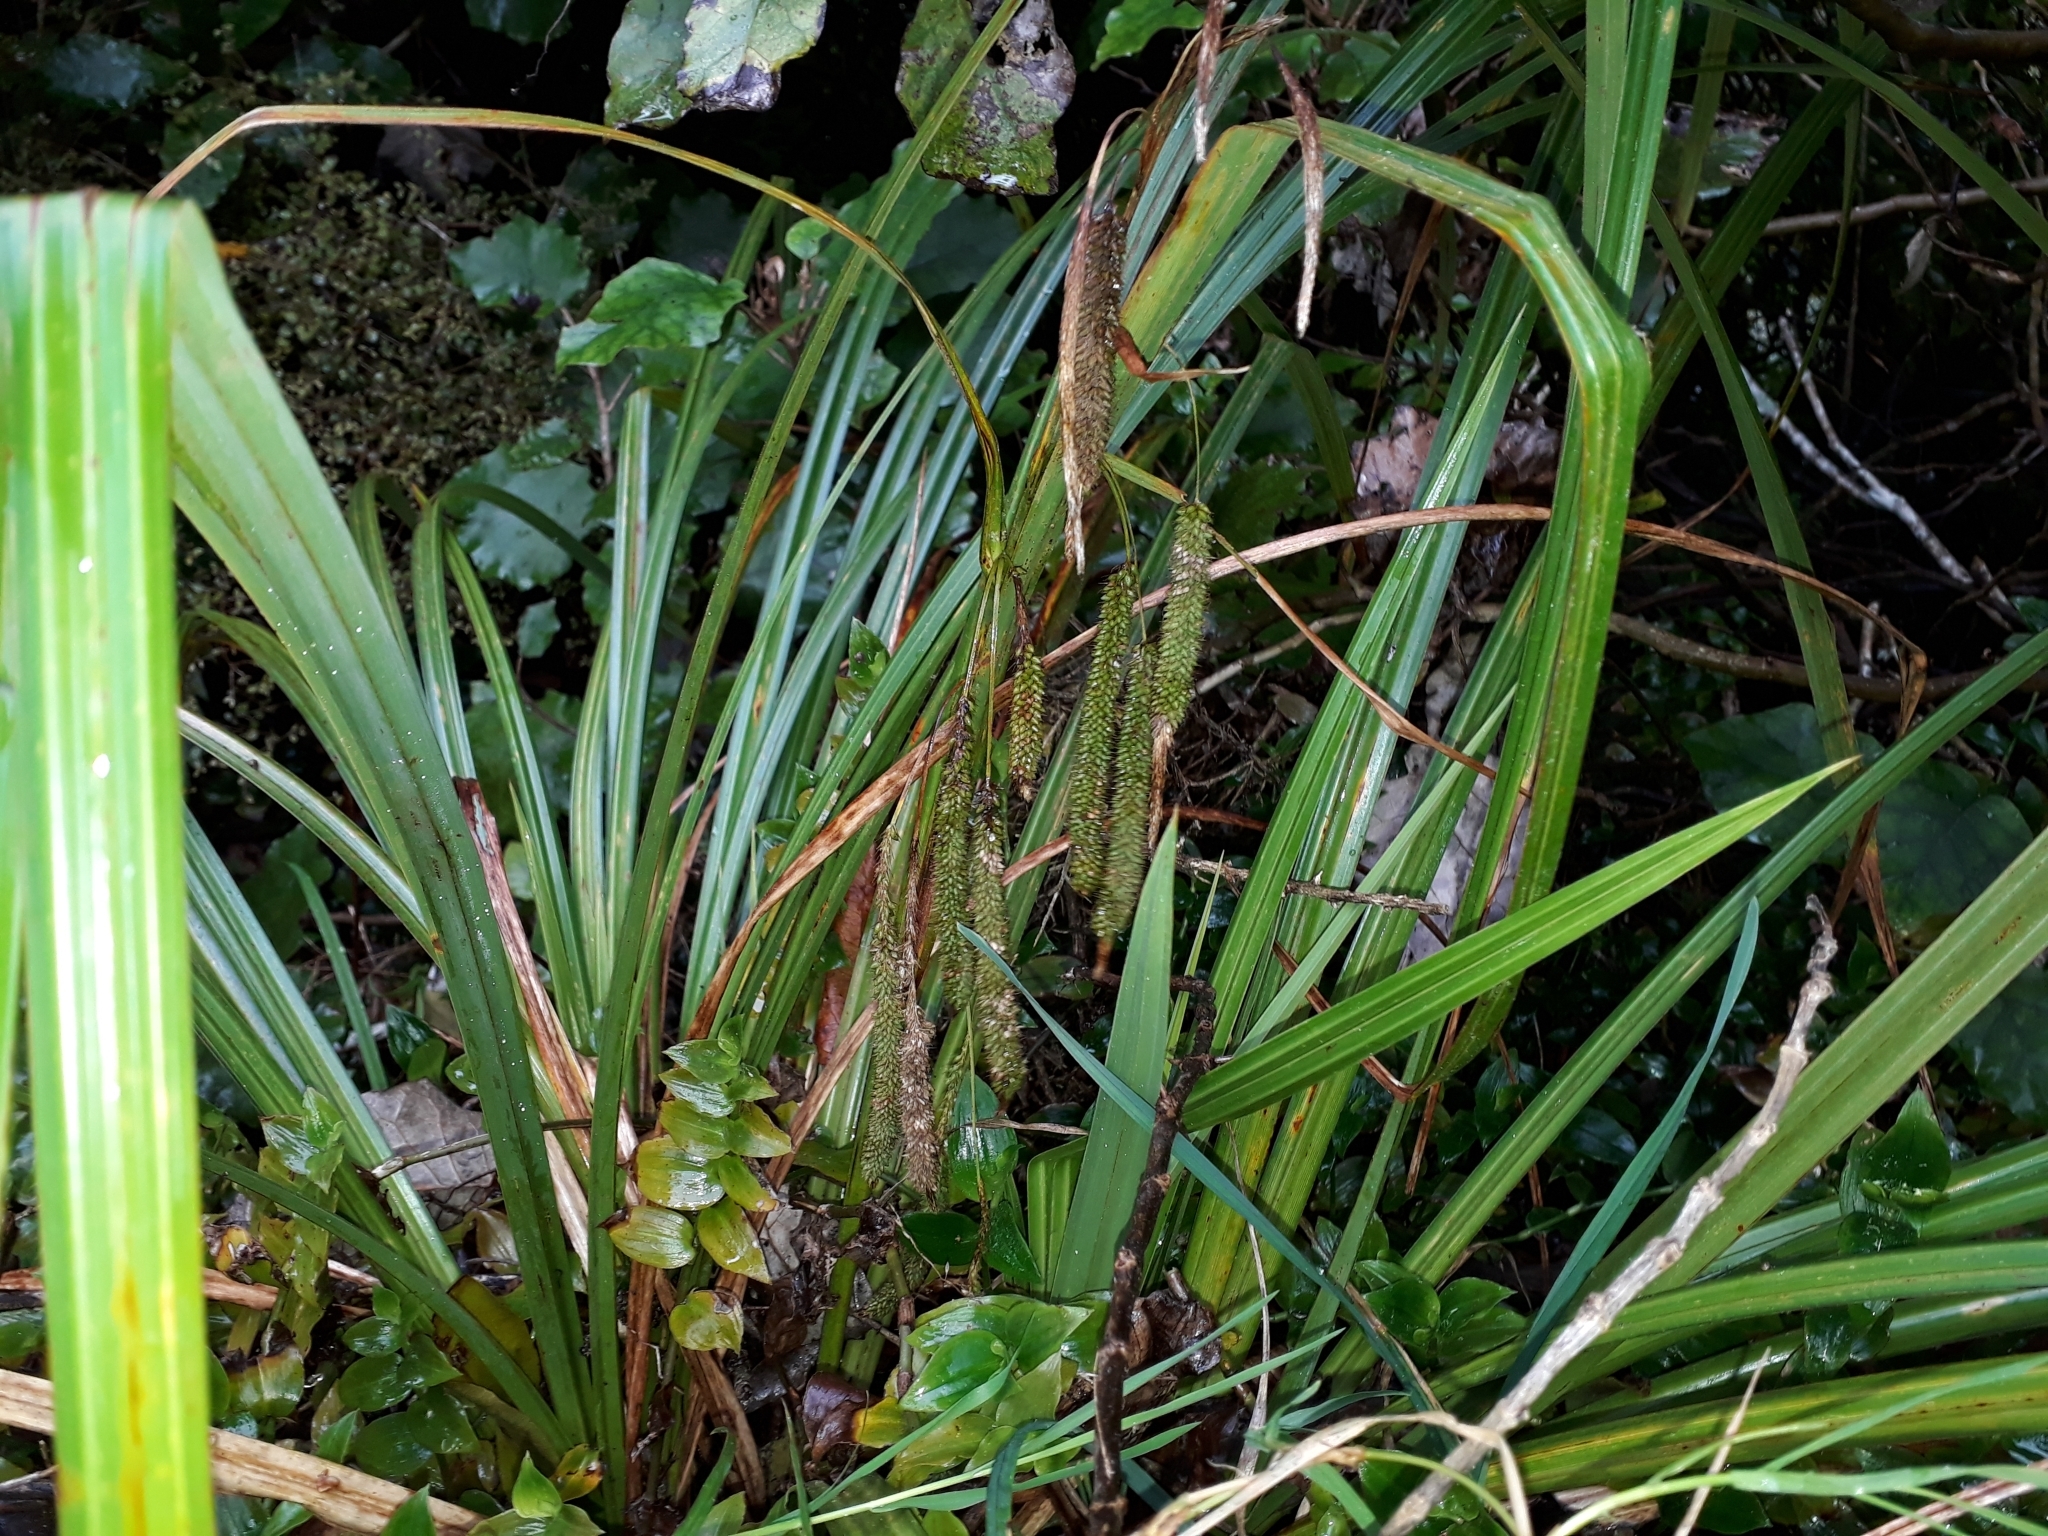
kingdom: Plantae
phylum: Tracheophyta
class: Liliopsida
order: Poales
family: Cyperaceae
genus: Carex
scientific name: Carex geminata
